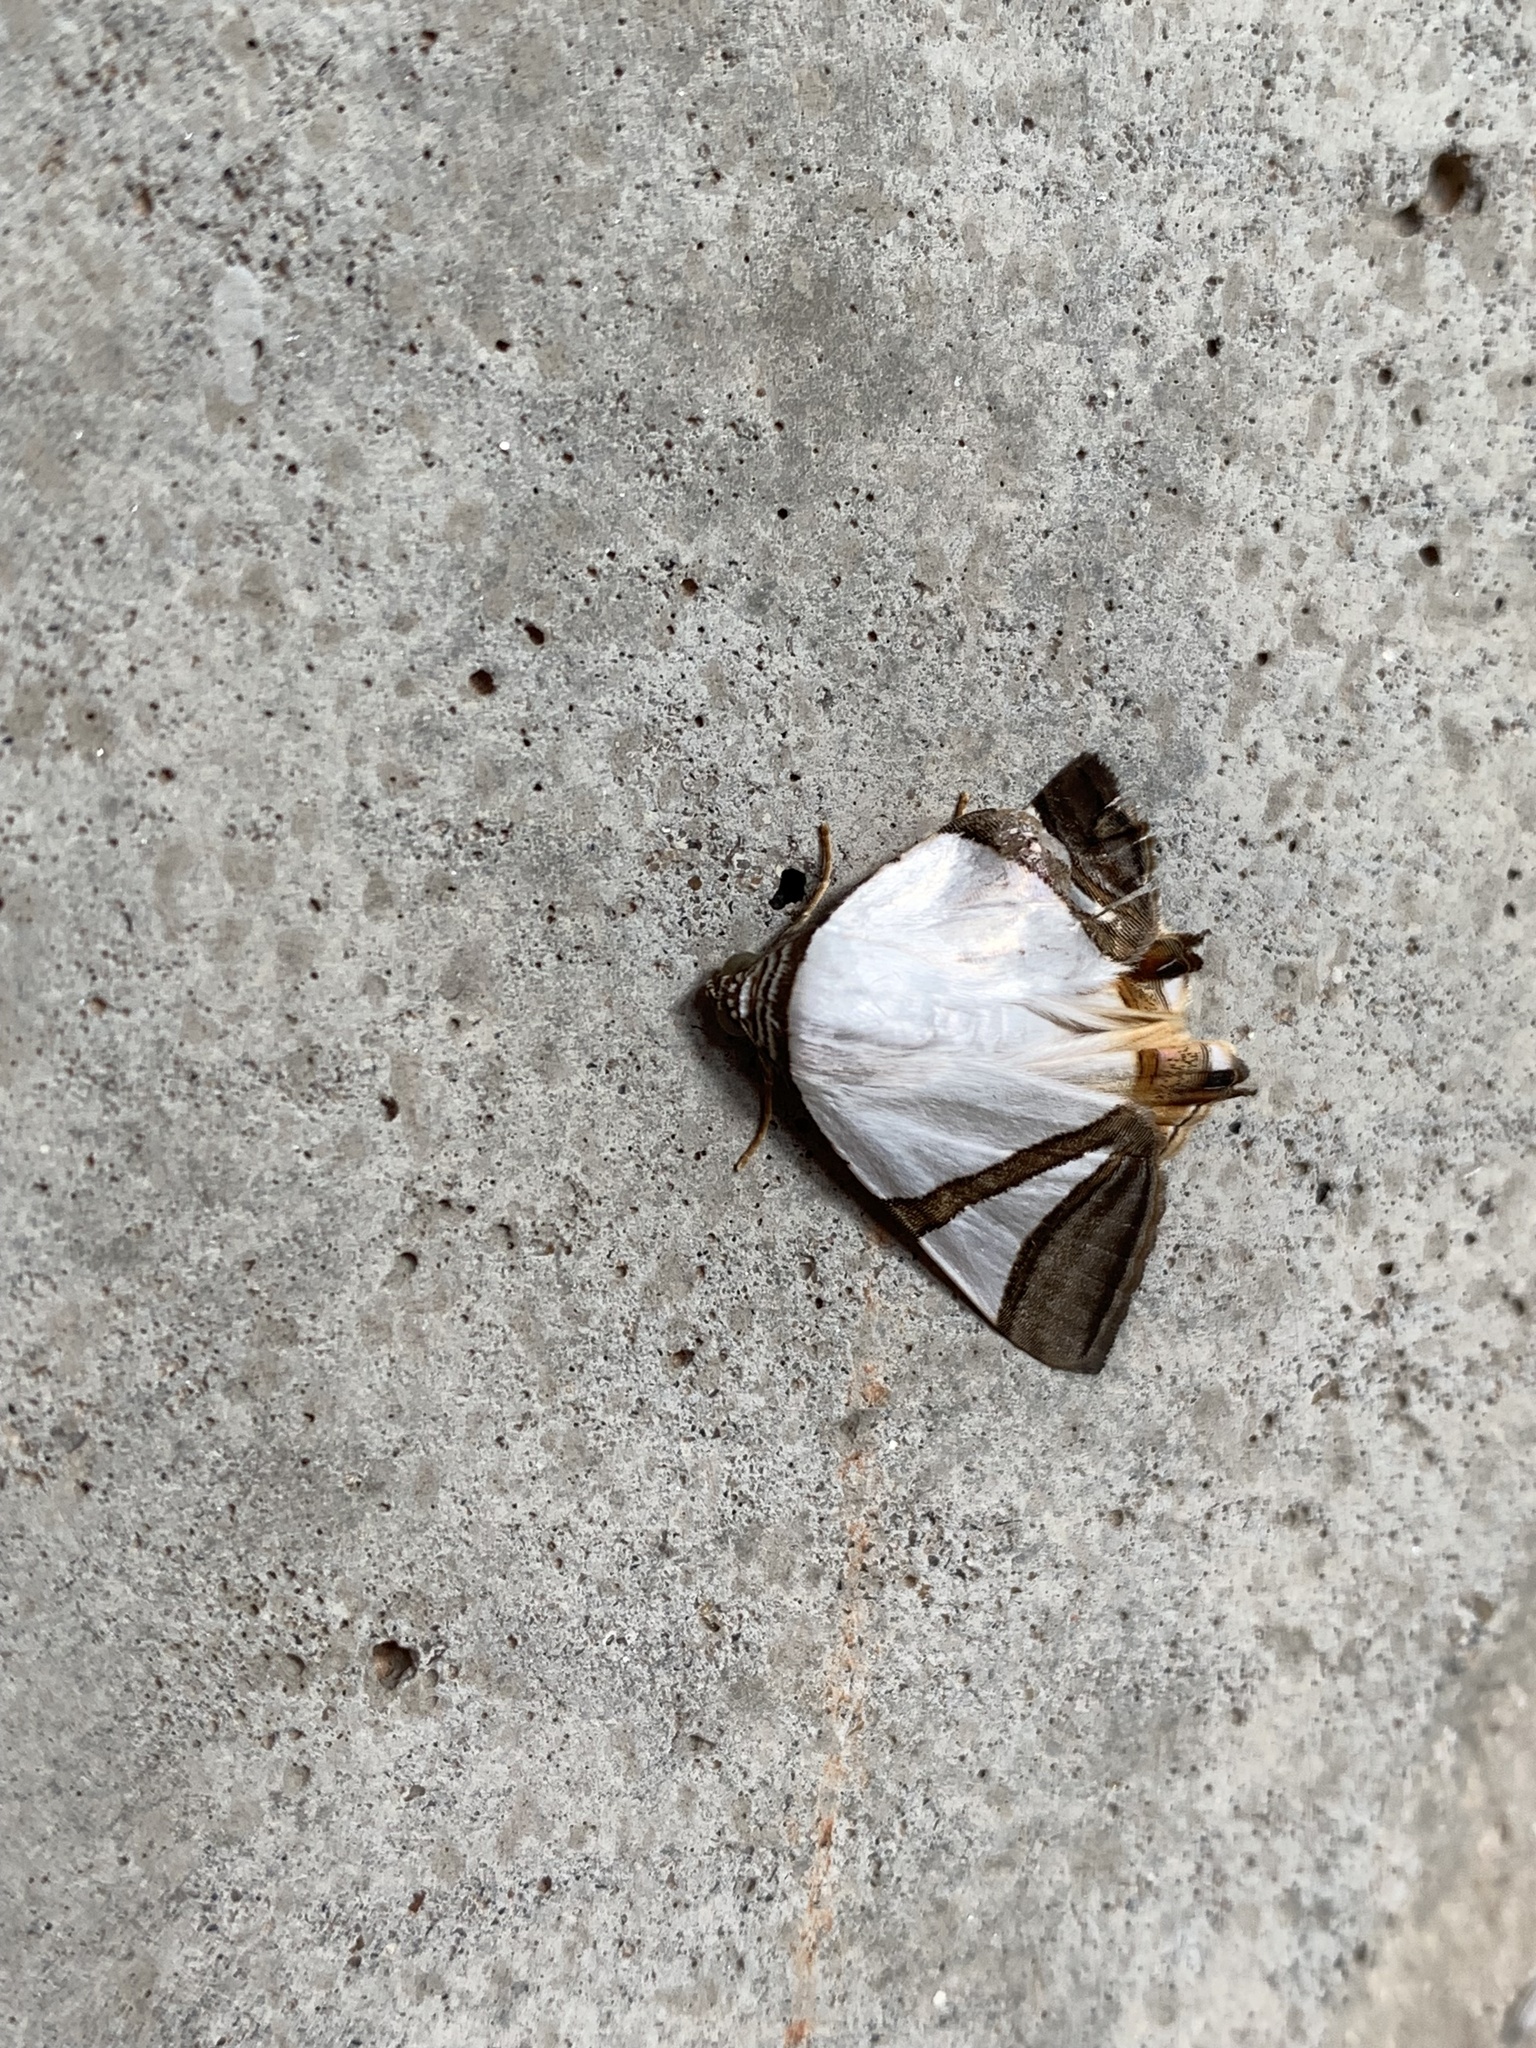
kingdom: Animalia
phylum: Arthropoda
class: Insecta
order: Lepidoptera
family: Erebidae
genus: Eulepidotis
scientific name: Eulepidotis rectimargo
